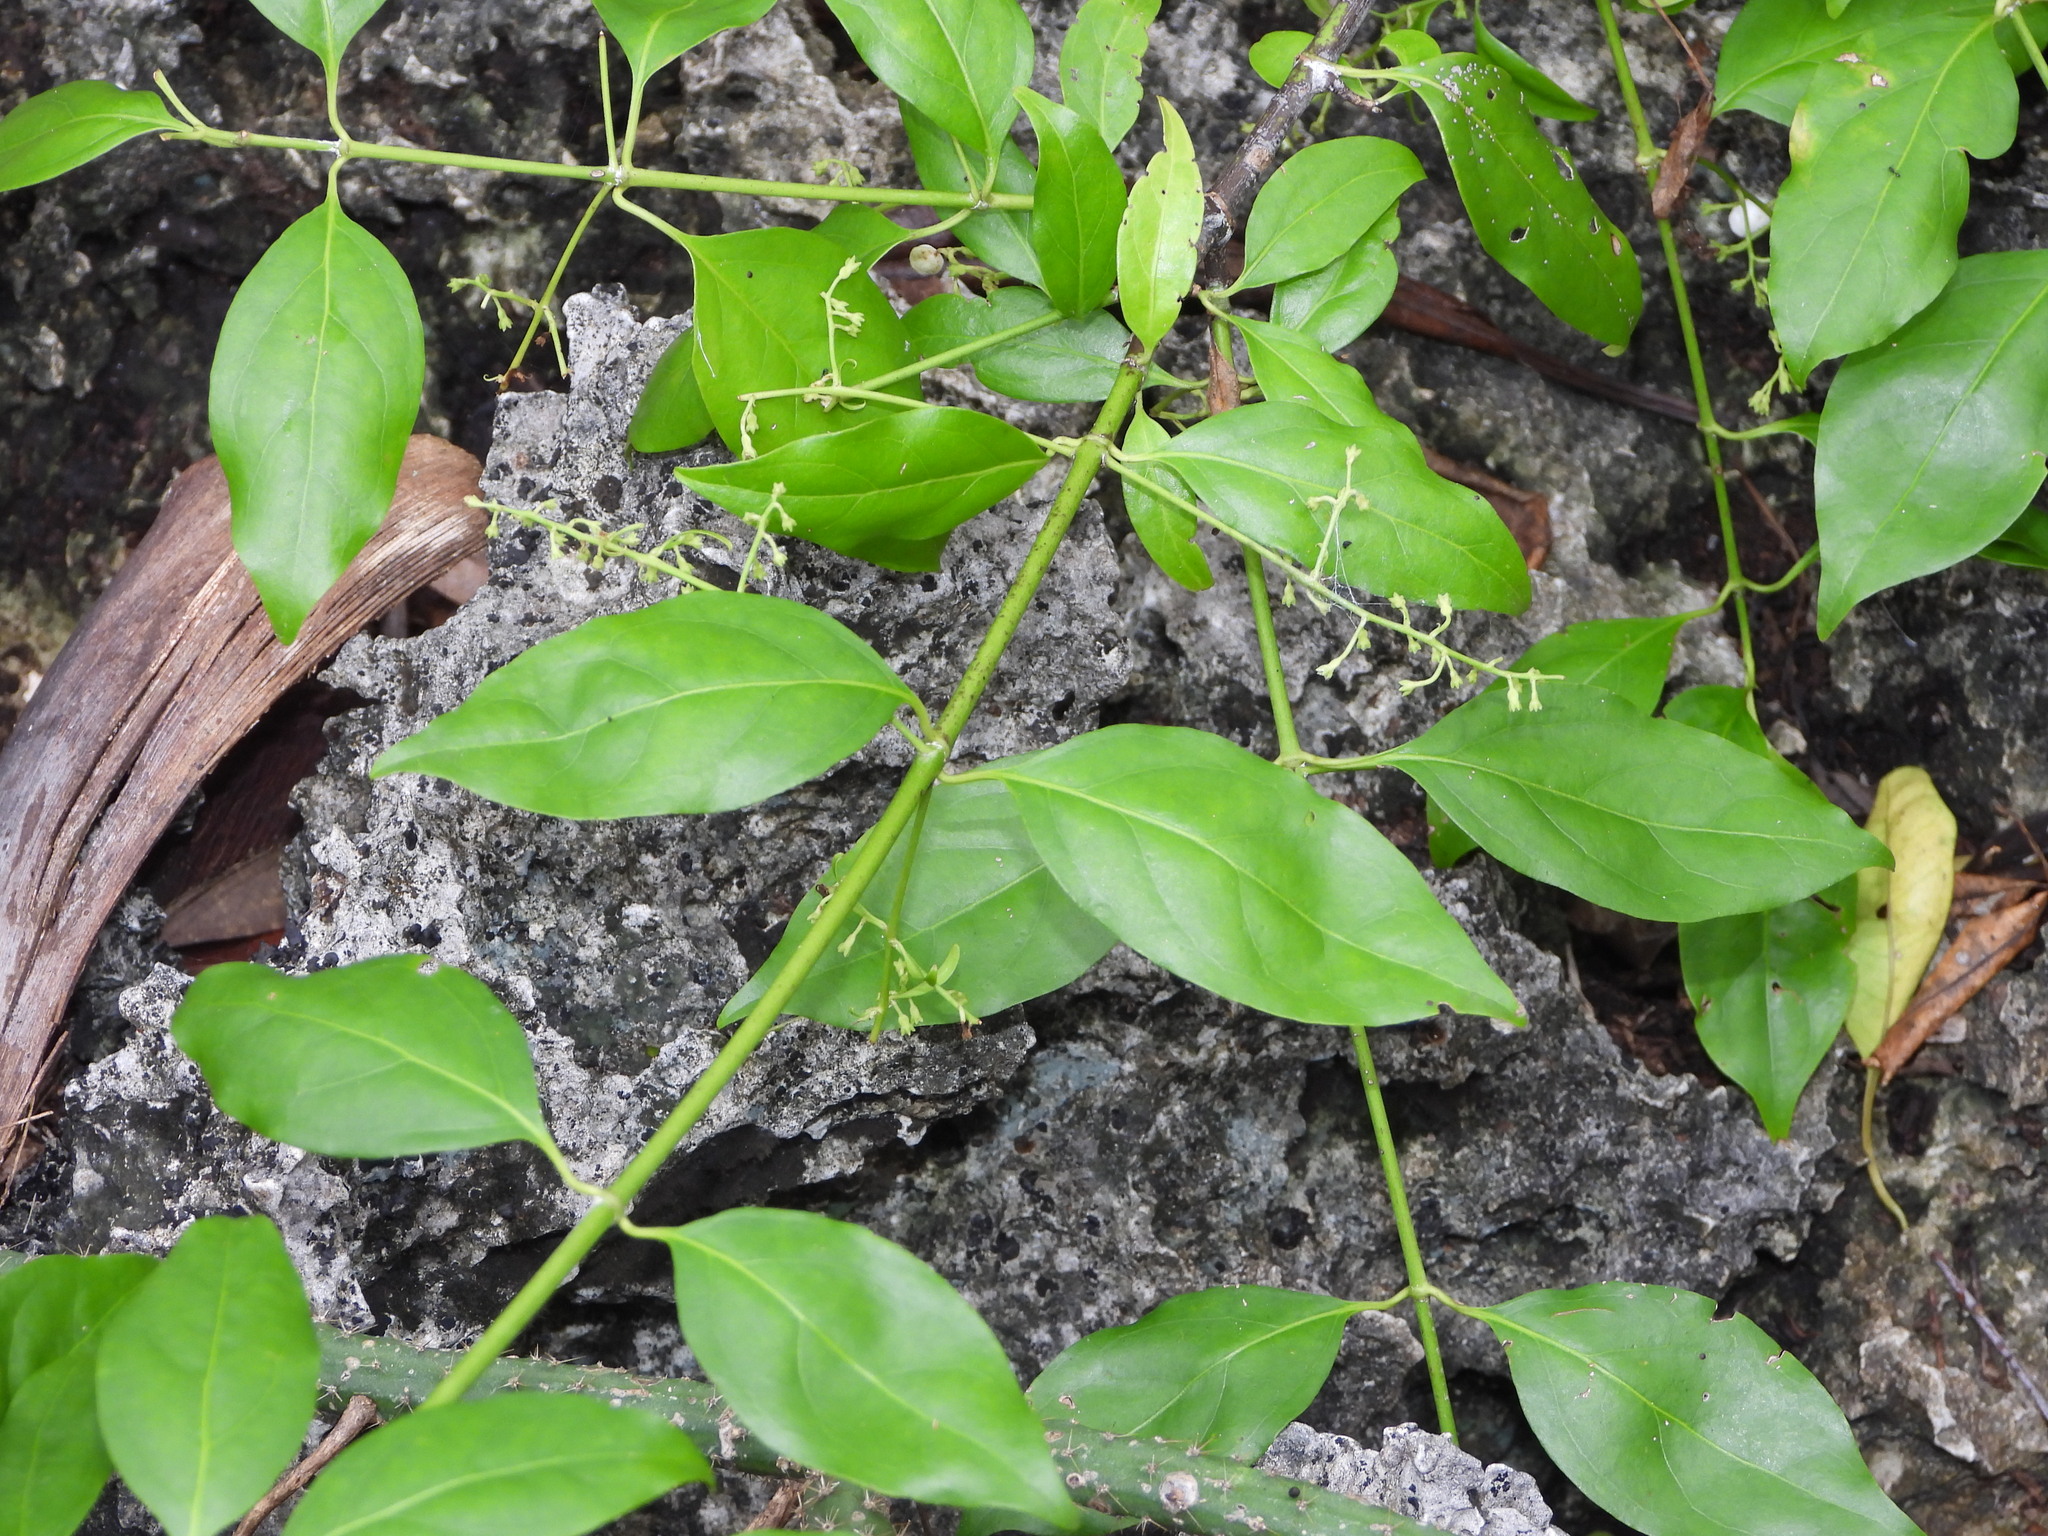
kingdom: Plantae
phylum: Tracheophyta
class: Magnoliopsida
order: Gentianales
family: Rubiaceae
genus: Chiococca
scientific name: Chiococca alba
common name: Snowberry
